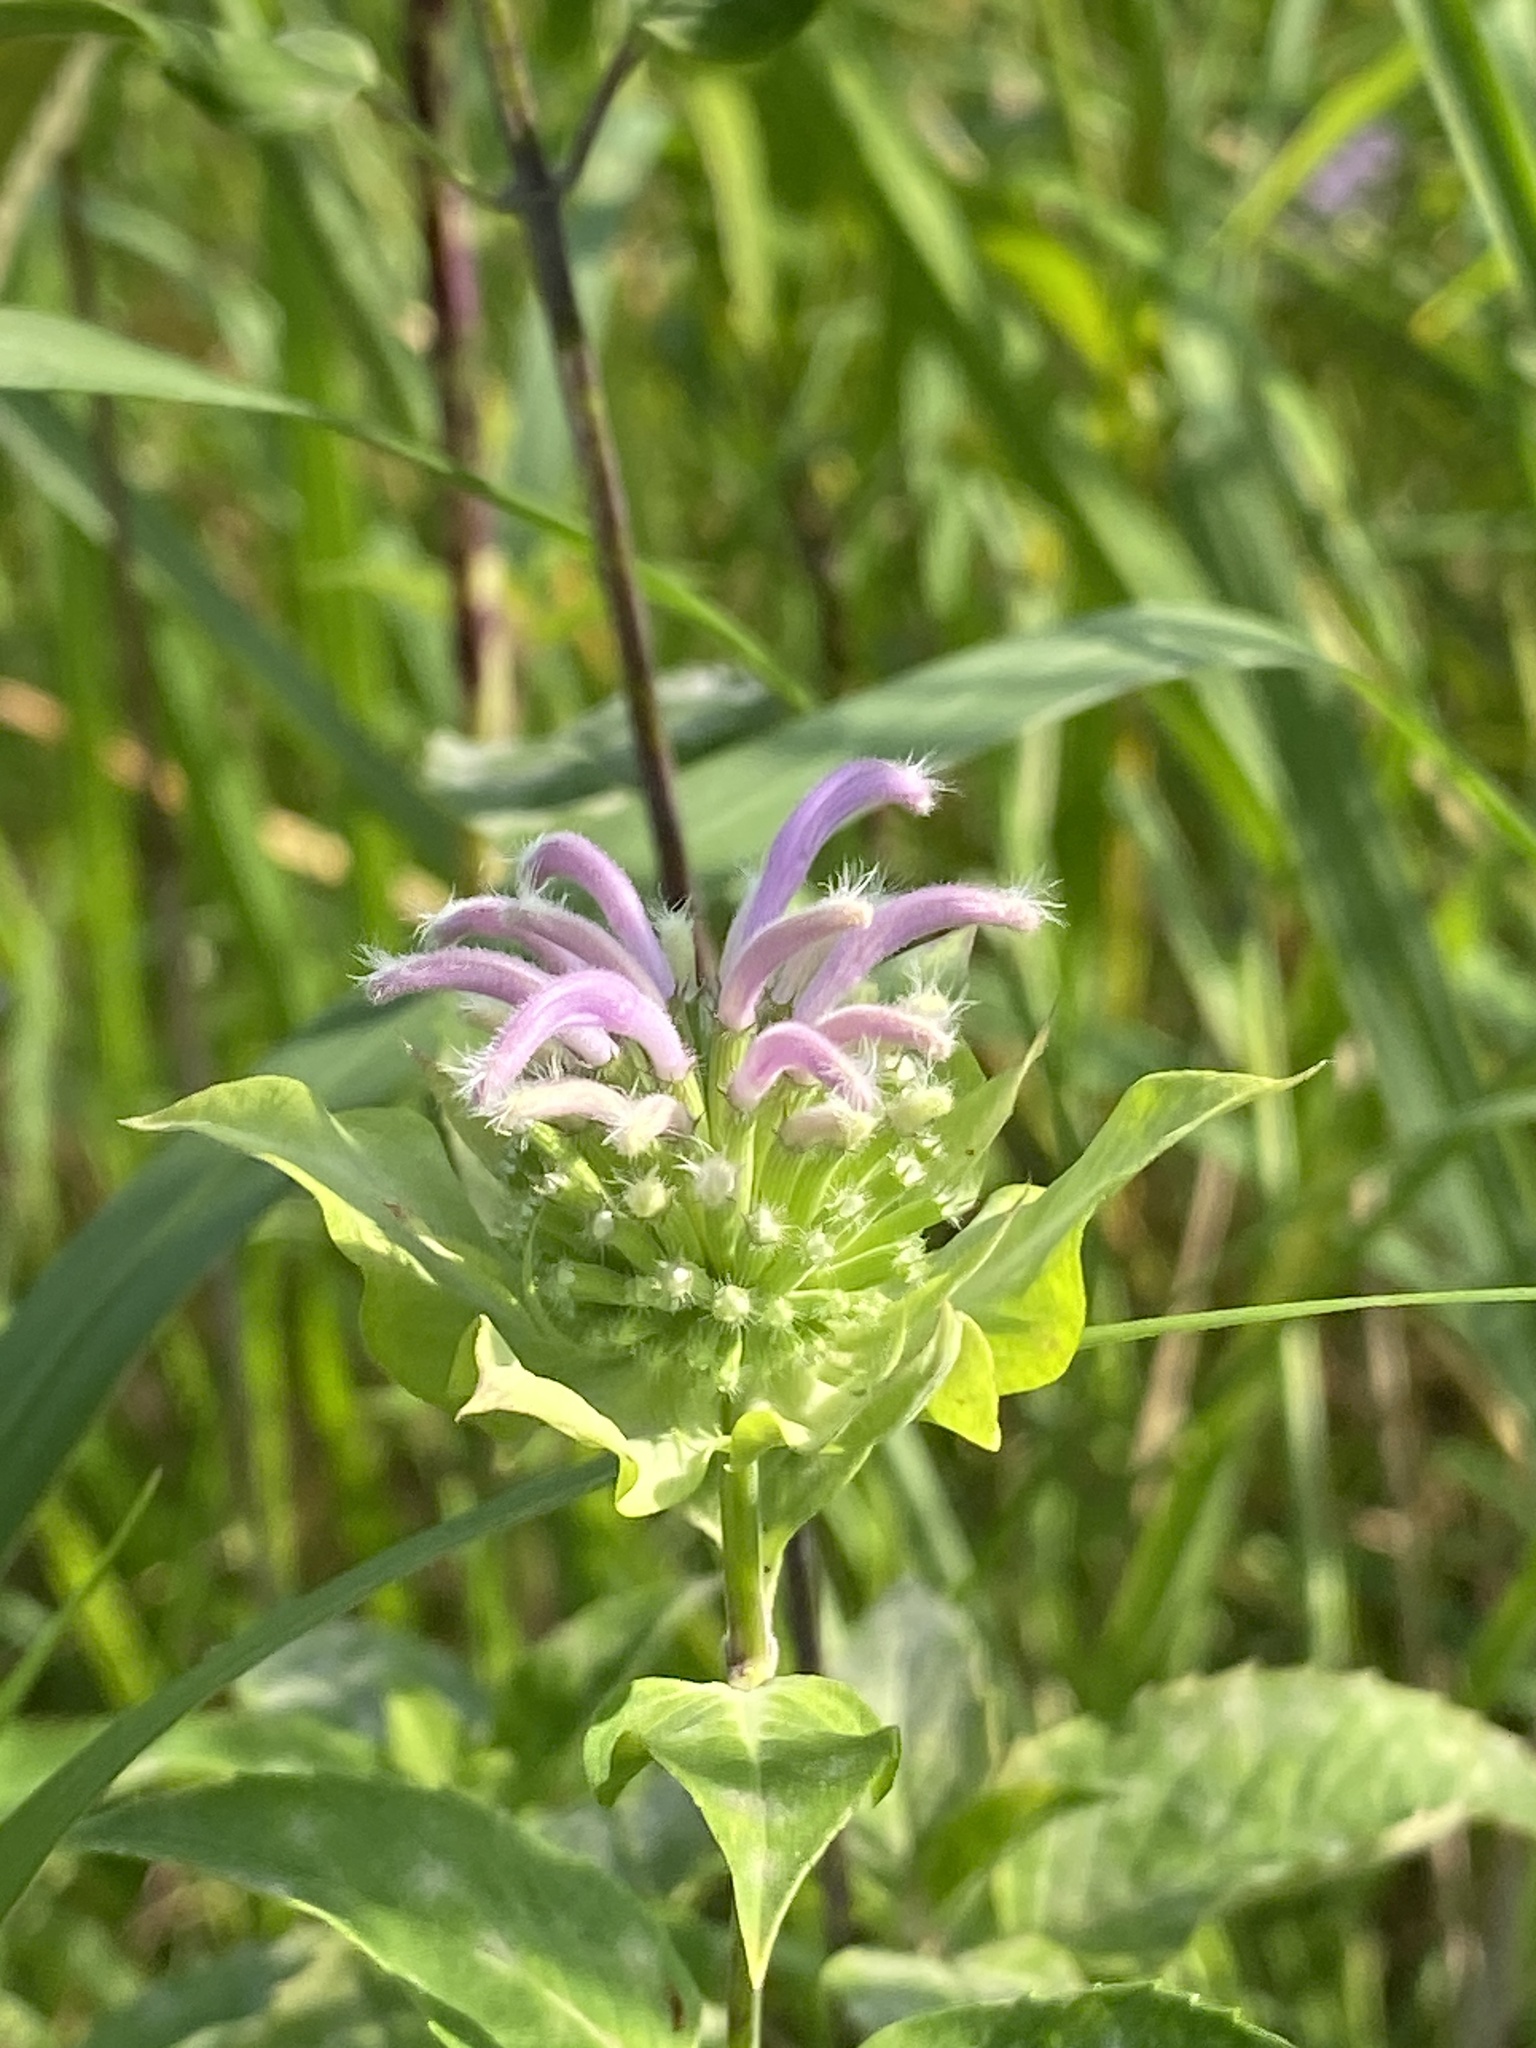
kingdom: Plantae
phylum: Tracheophyta
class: Magnoliopsida
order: Lamiales
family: Lamiaceae
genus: Monarda
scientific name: Monarda fistulosa
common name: Purple beebalm
